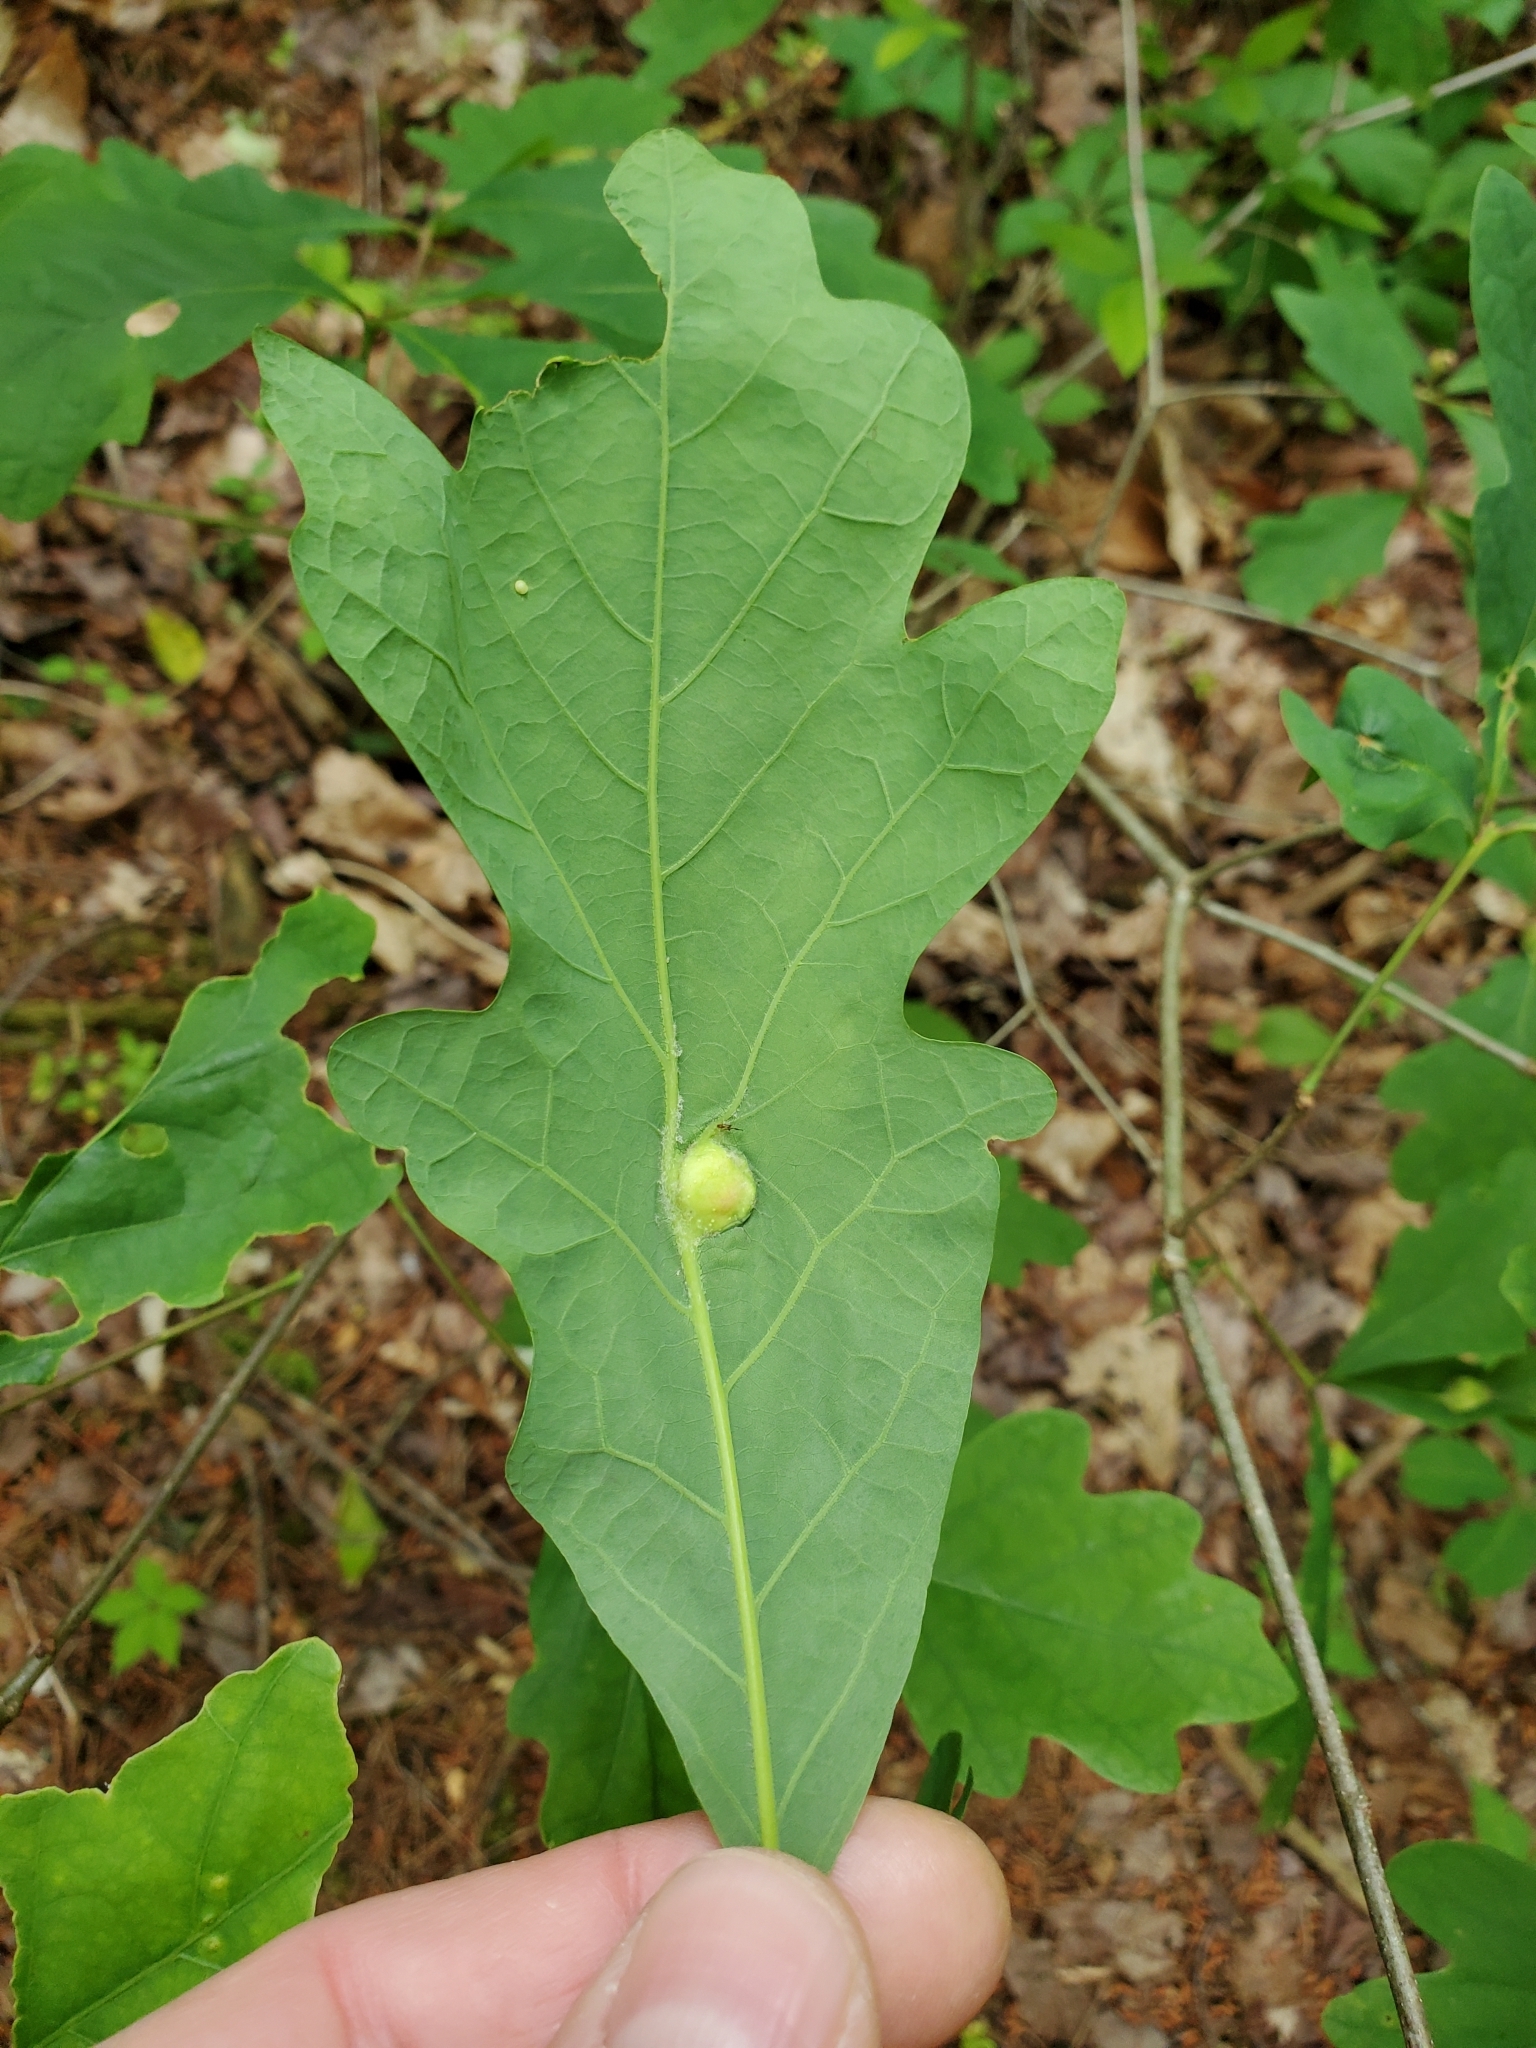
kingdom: Animalia
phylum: Arthropoda
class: Insecta
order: Hymenoptera
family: Cynipidae
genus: Andricus
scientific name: Andricus
